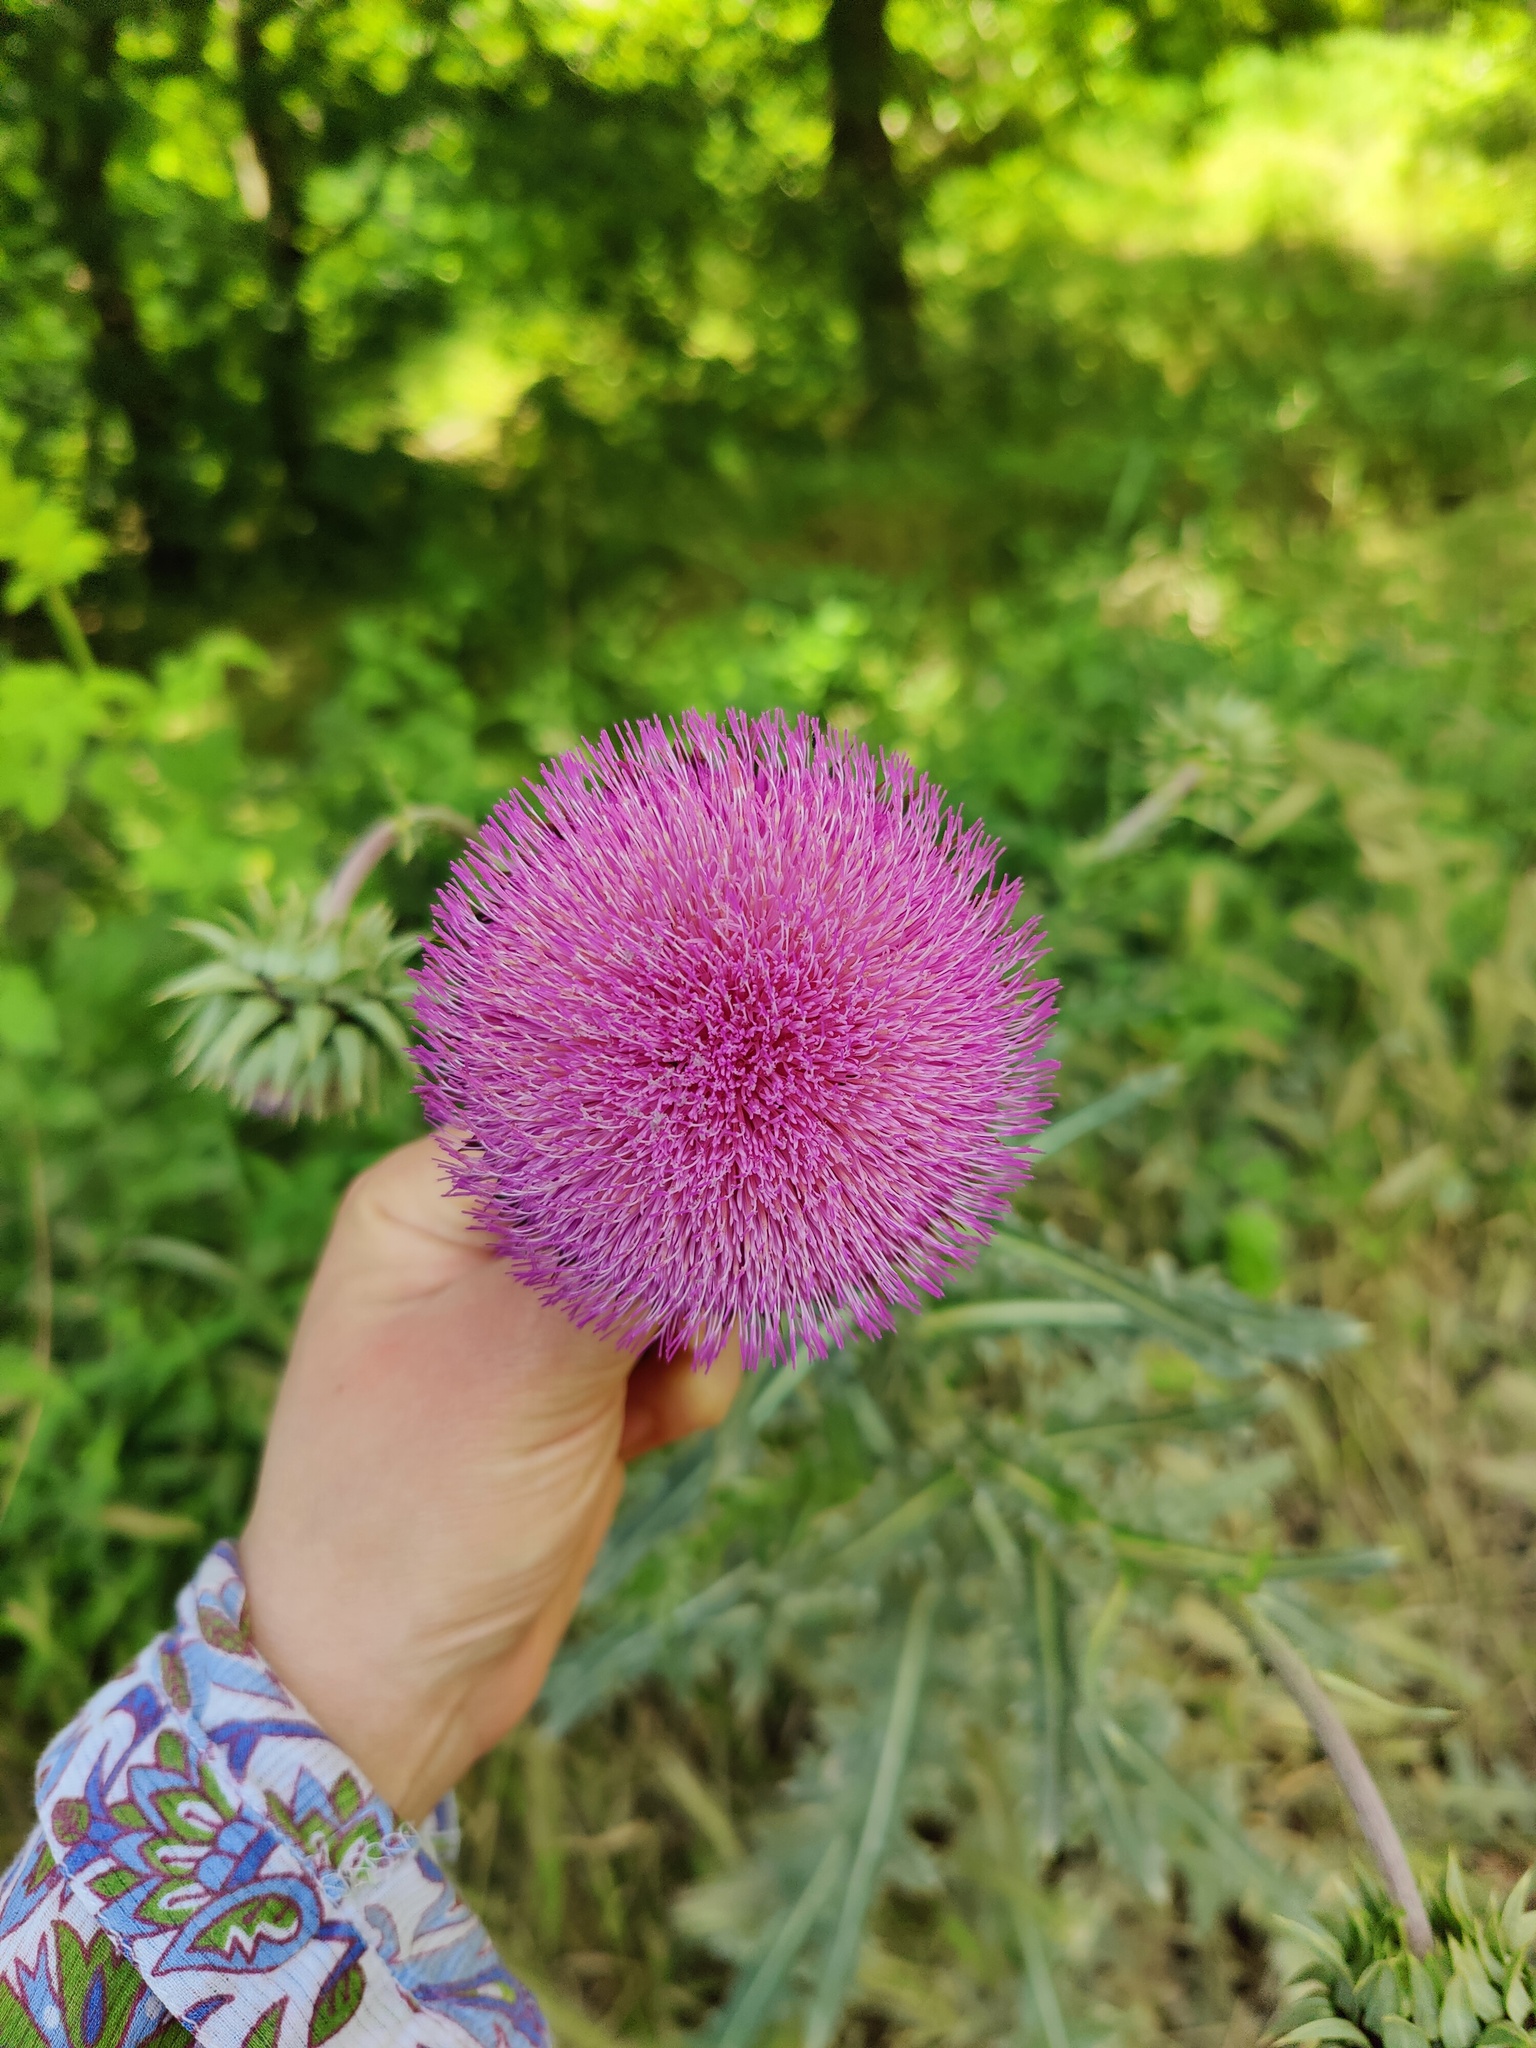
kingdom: Plantae
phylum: Tracheophyta
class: Magnoliopsida
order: Asterales
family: Asteraceae
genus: Carduus
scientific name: Carduus nutans
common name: Musk thistle
